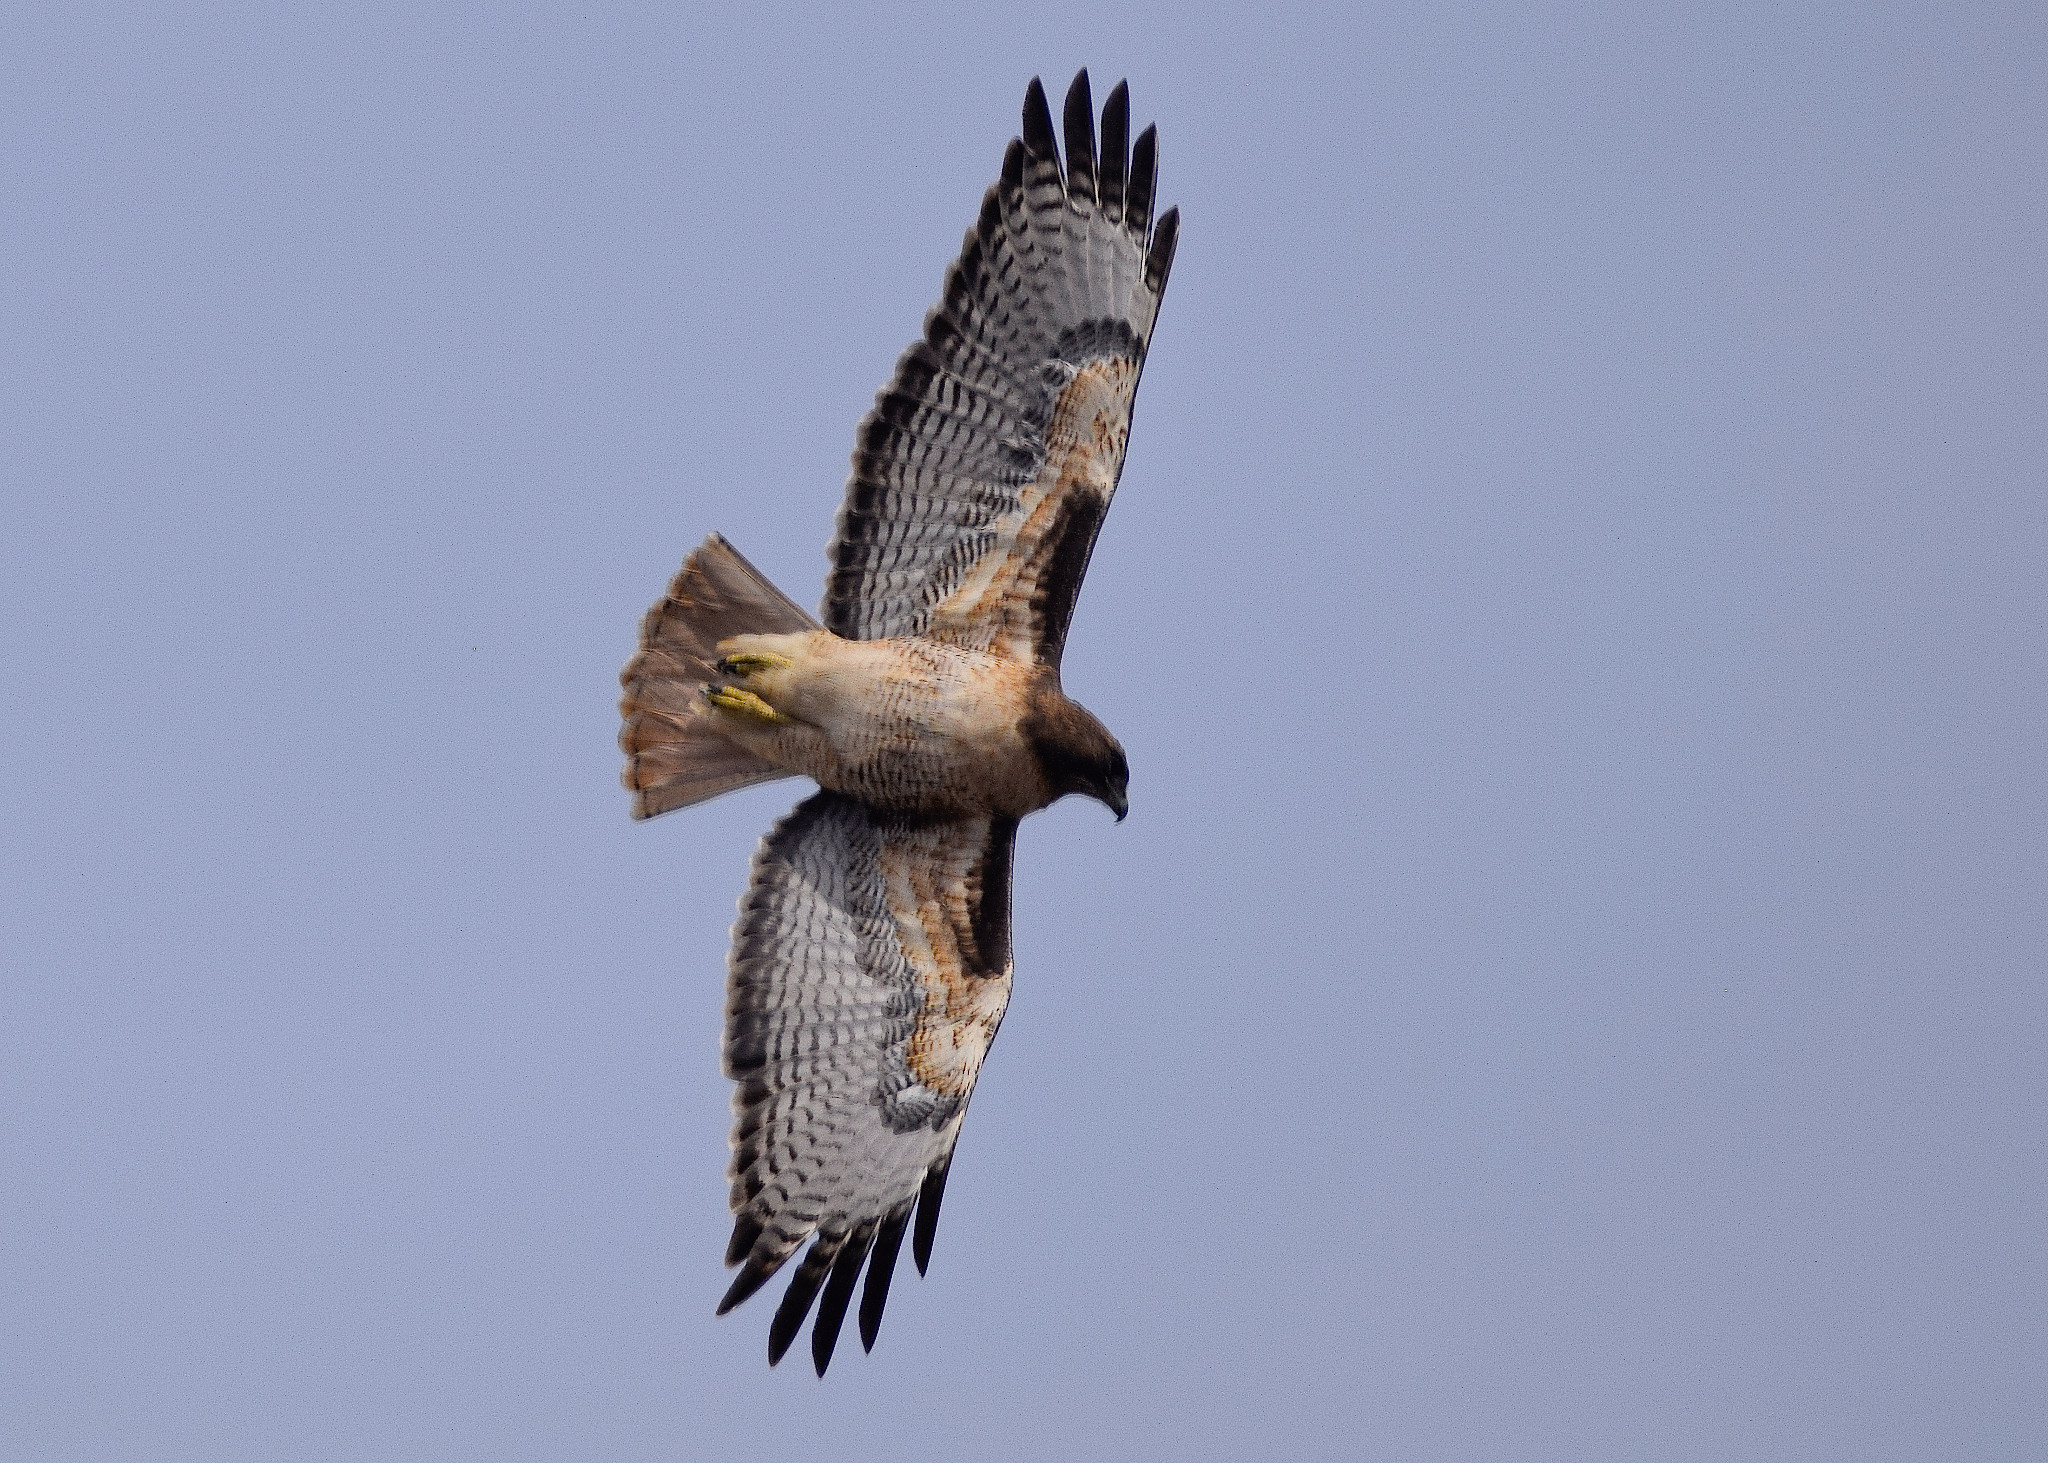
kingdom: Animalia
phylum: Chordata
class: Aves
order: Accipitriformes
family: Accipitridae
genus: Buteo
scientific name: Buteo jamaicensis
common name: Red-tailed hawk
